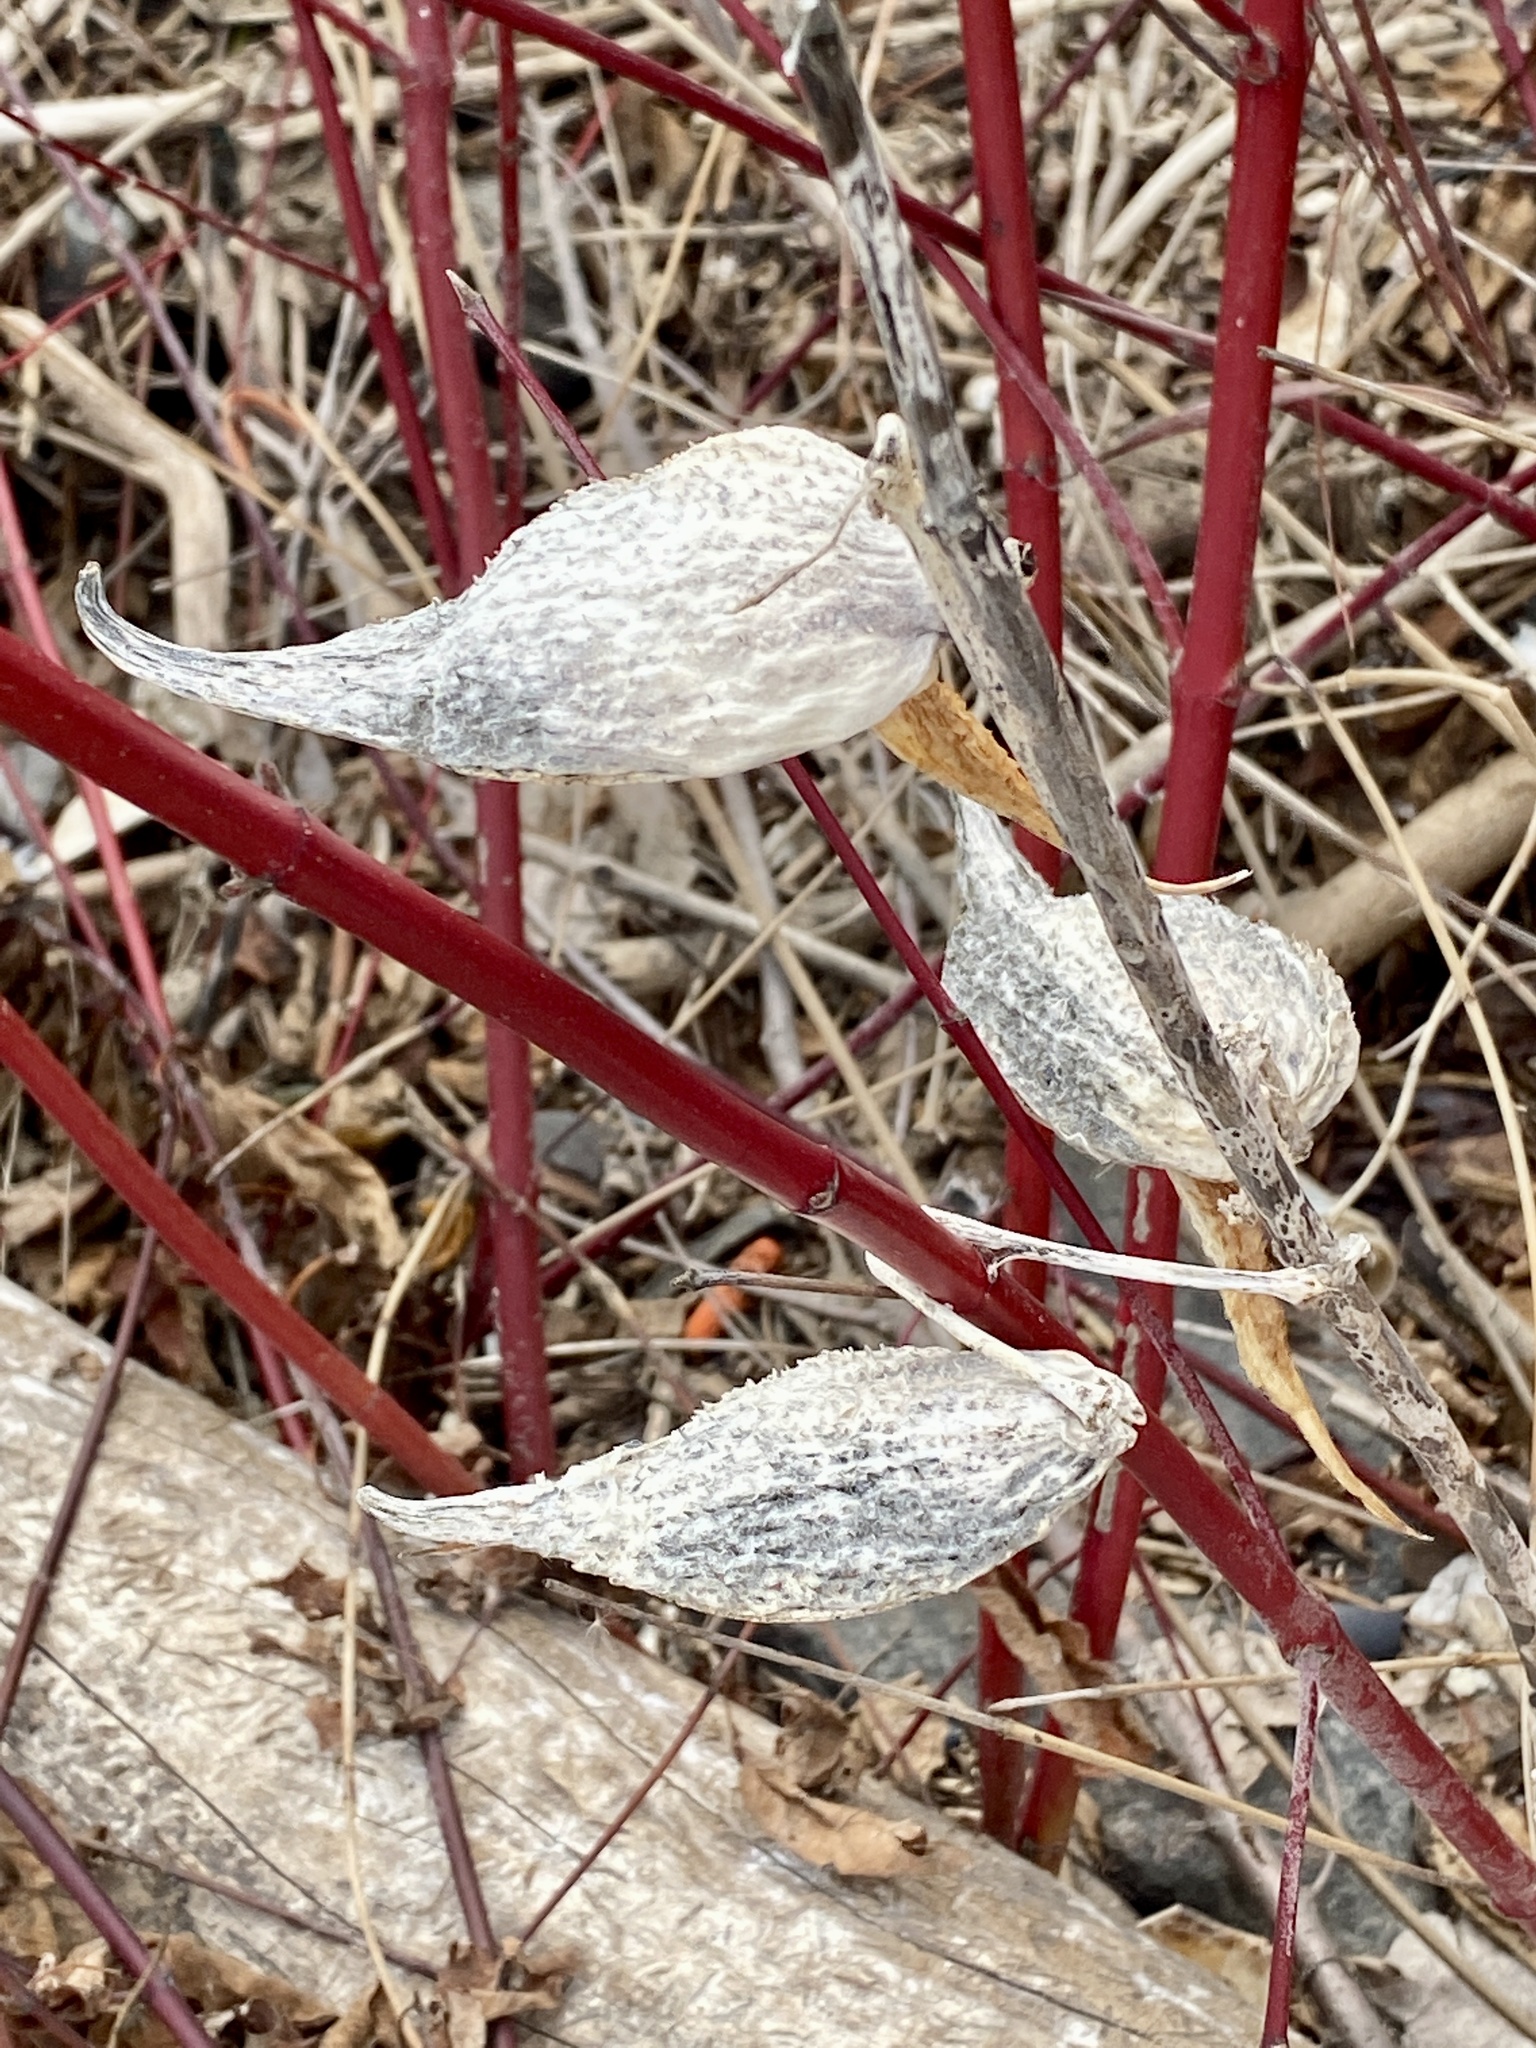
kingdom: Plantae
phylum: Tracheophyta
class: Magnoliopsida
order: Gentianales
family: Apocynaceae
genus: Asclepias
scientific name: Asclepias syriaca
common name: Common milkweed
